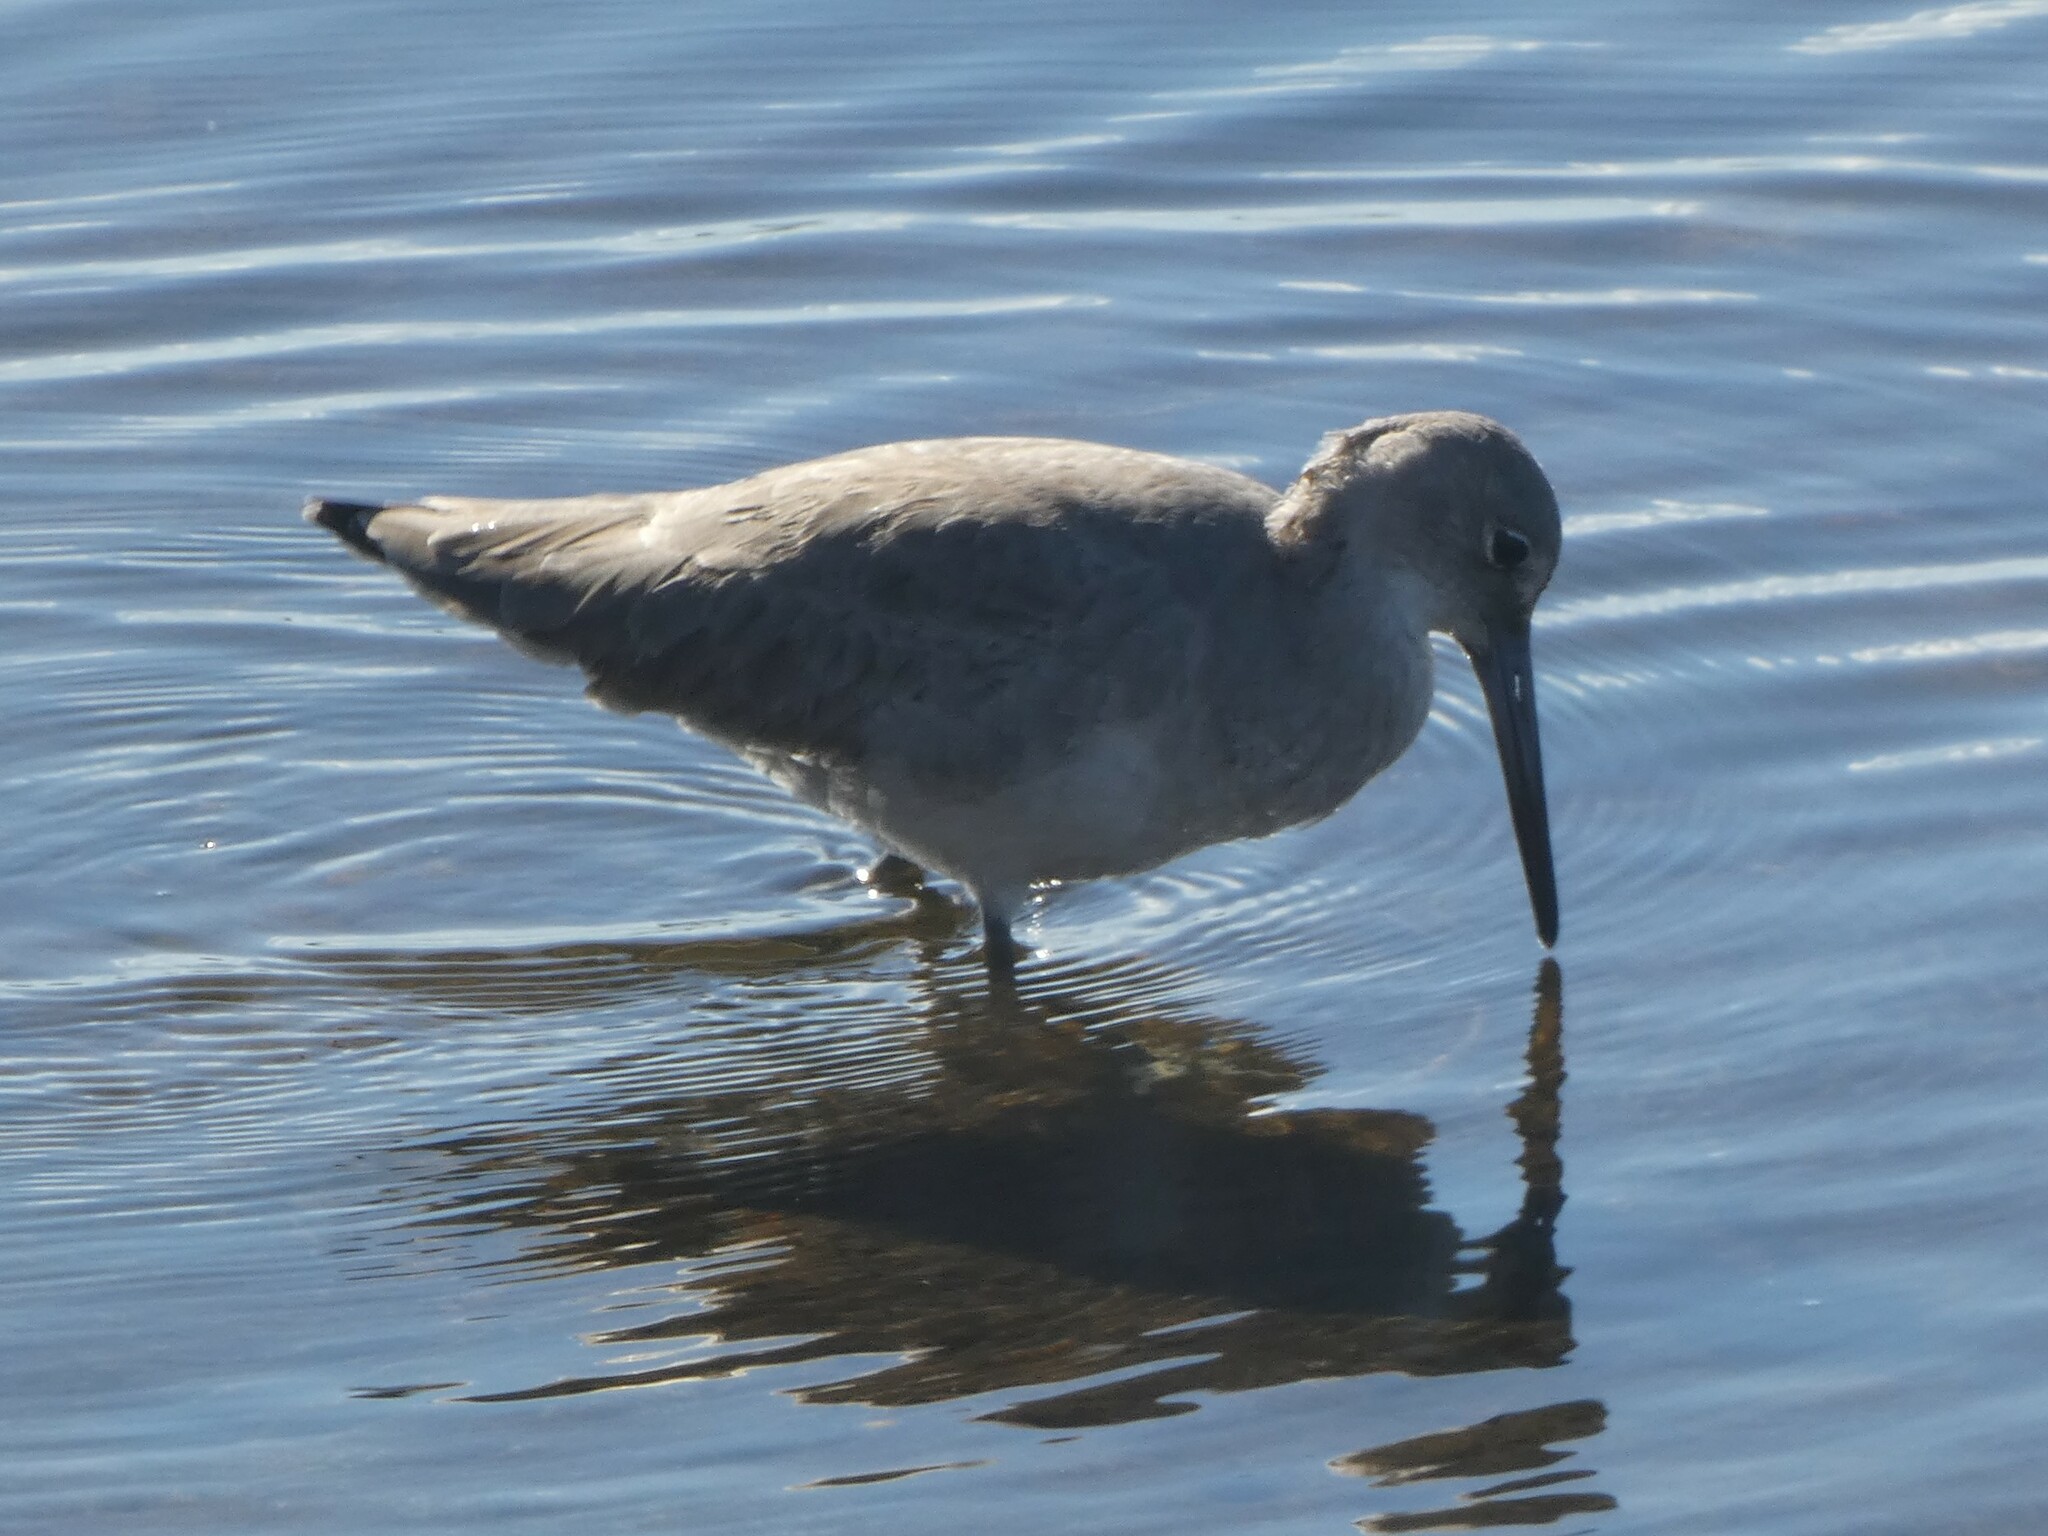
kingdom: Animalia
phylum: Chordata
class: Aves
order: Charadriiformes
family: Scolopacidae
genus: Tringa
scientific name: Tringa semipalmata
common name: Willet
